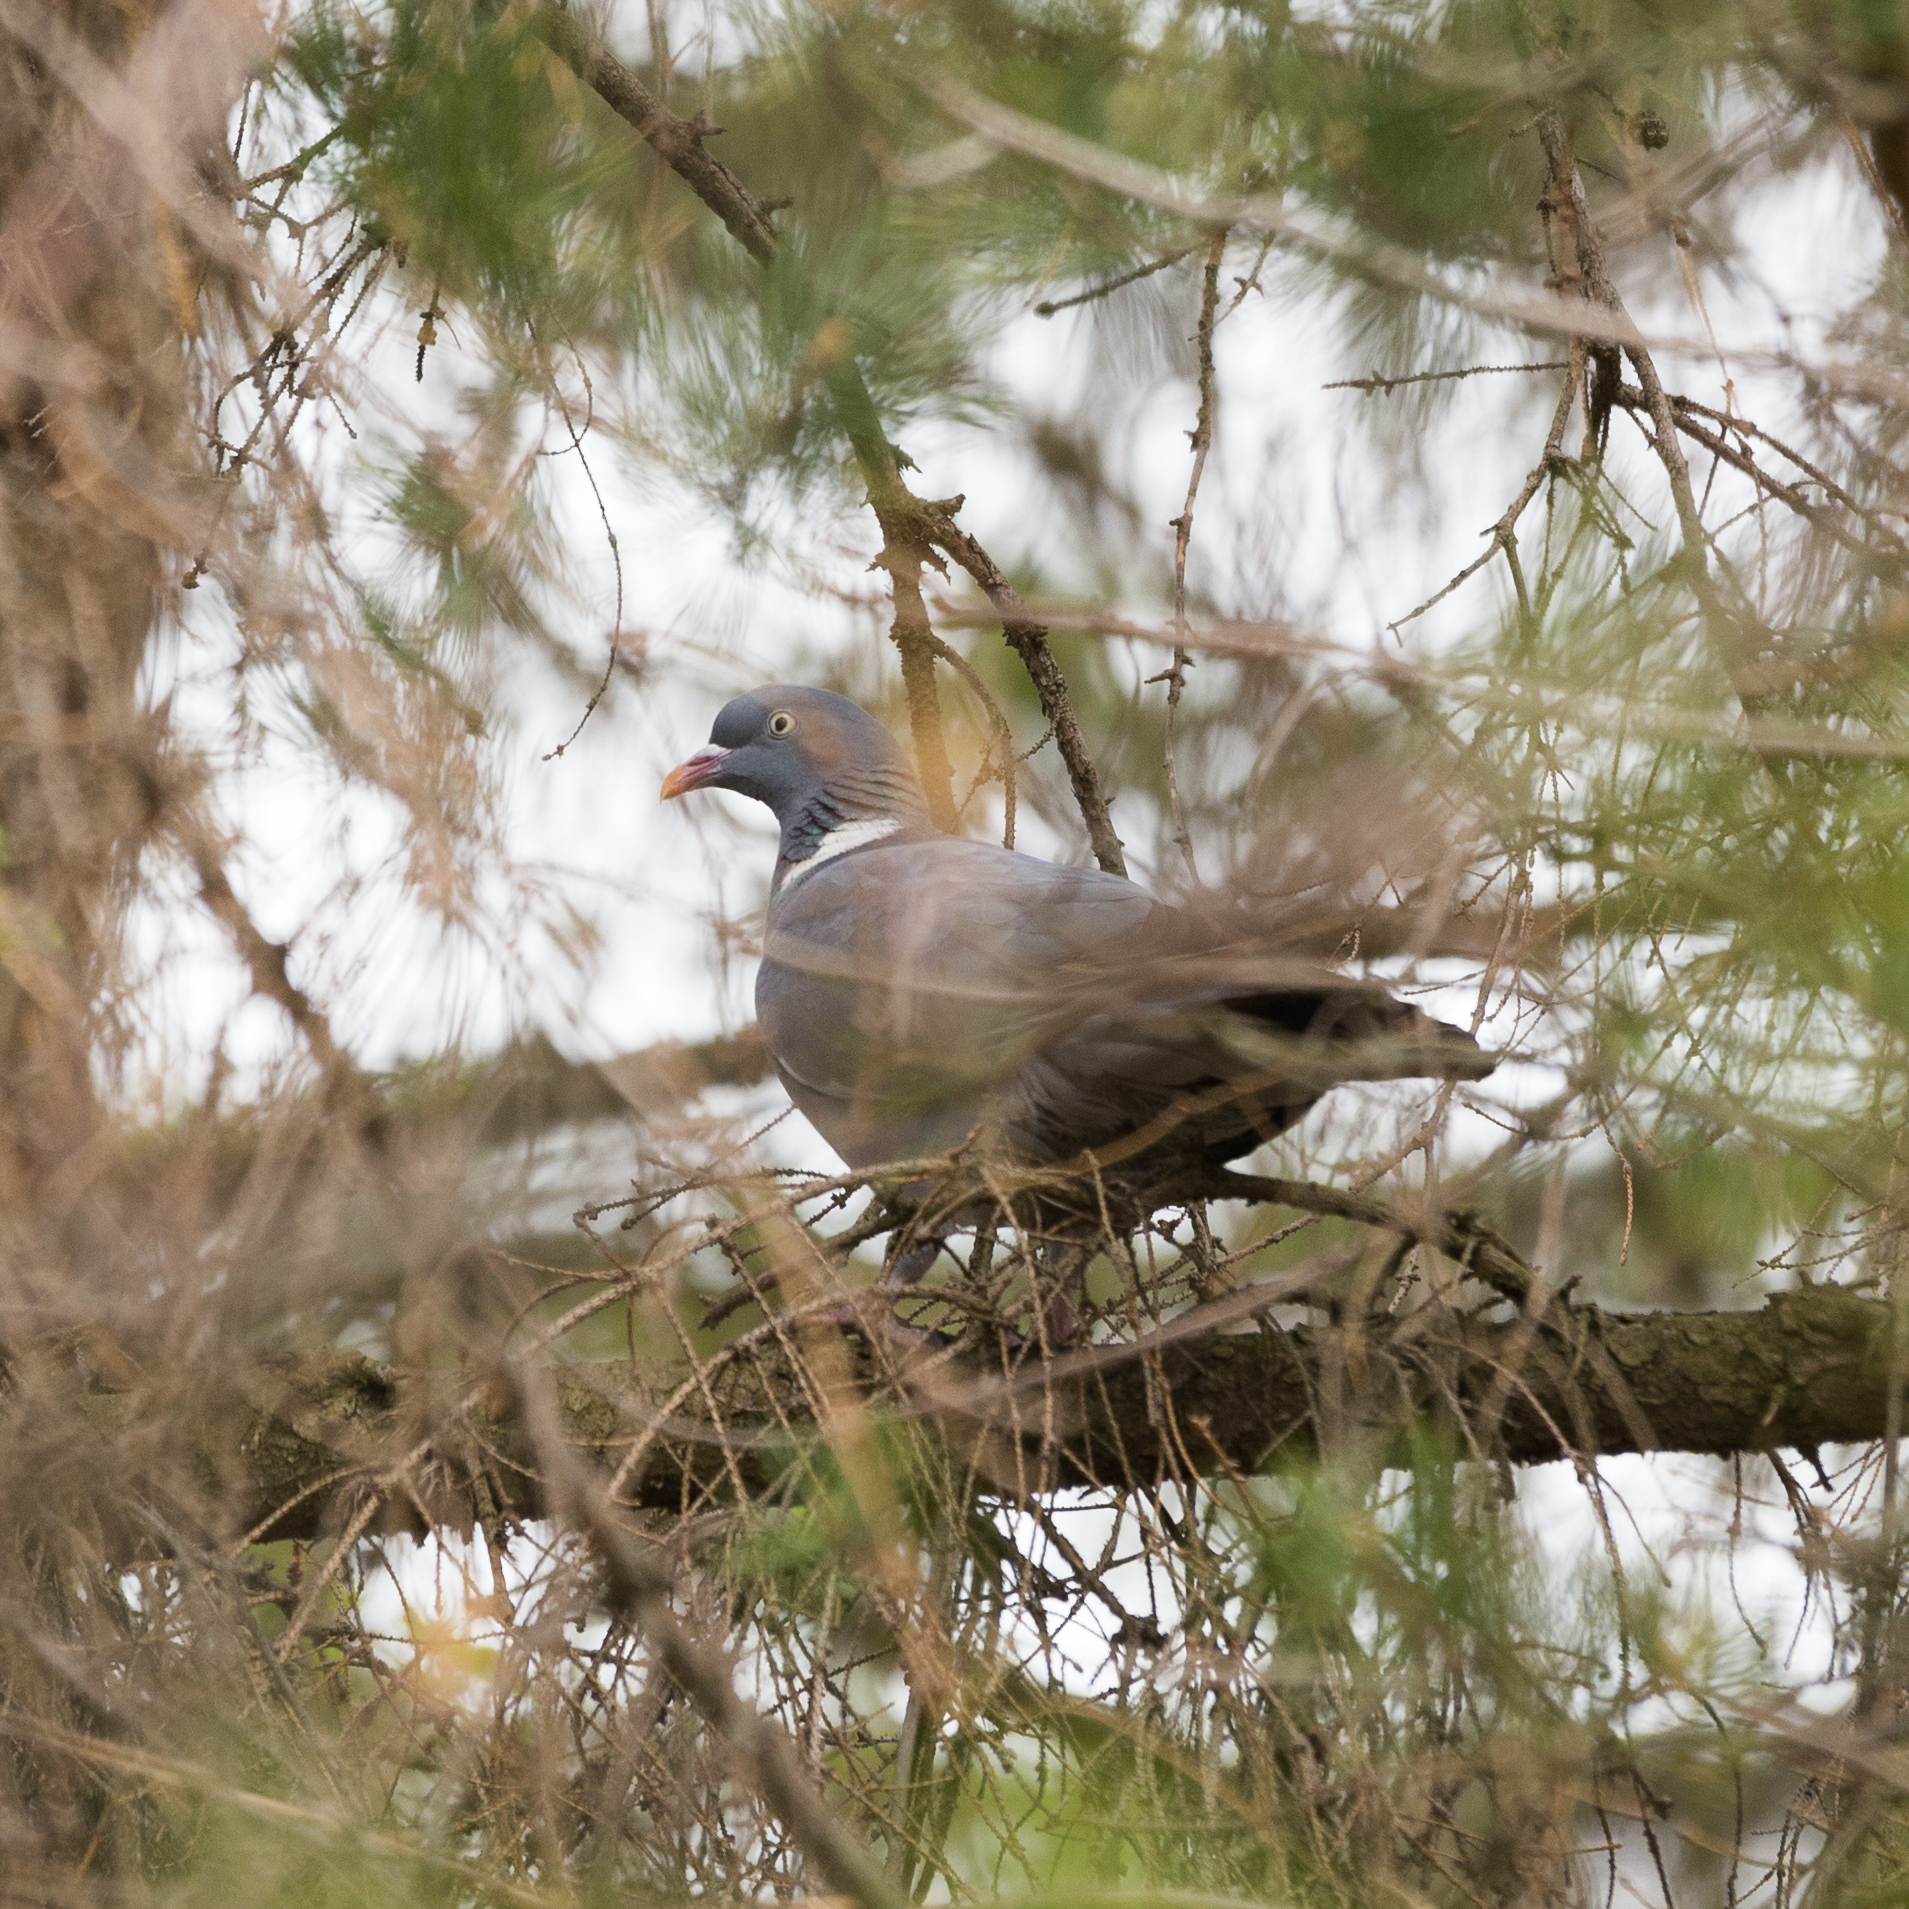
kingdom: Animalia
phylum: Chordata
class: Aves
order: Columbiformes
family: Columbidae
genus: Columba
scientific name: Columba palumbus
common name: Common wood pigeon
